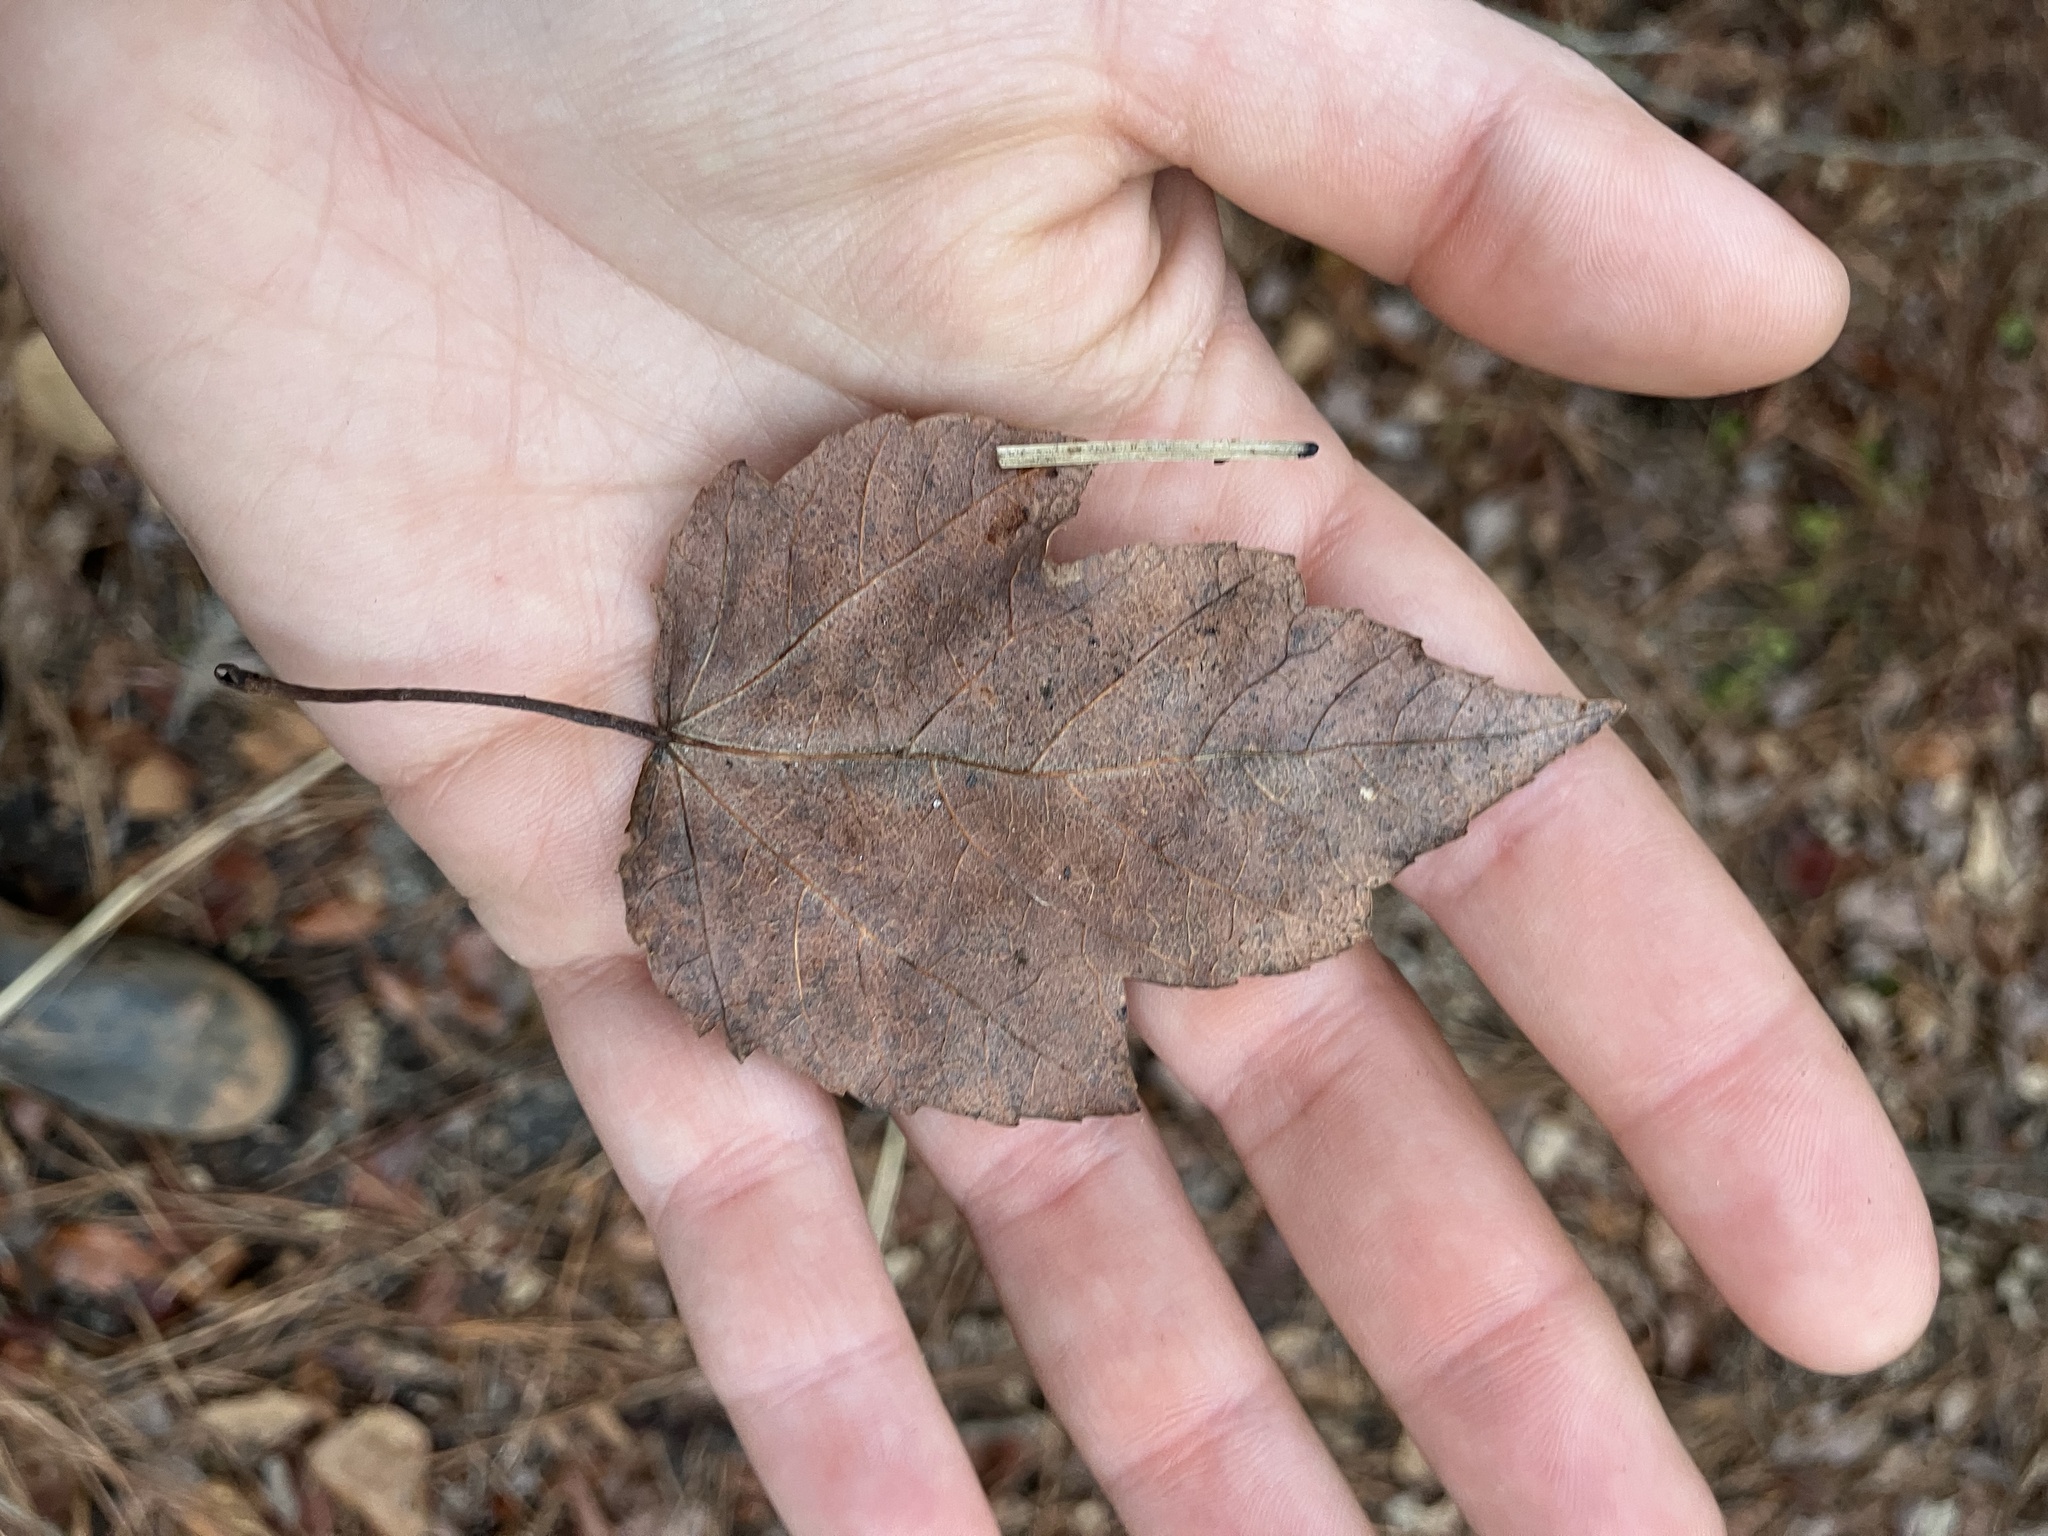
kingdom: Plantae
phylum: Tracheophyta
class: Magnoliopsida
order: Sapindales
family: Sapindaceae
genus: Acer
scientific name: Acer rubrum
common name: Red maple
